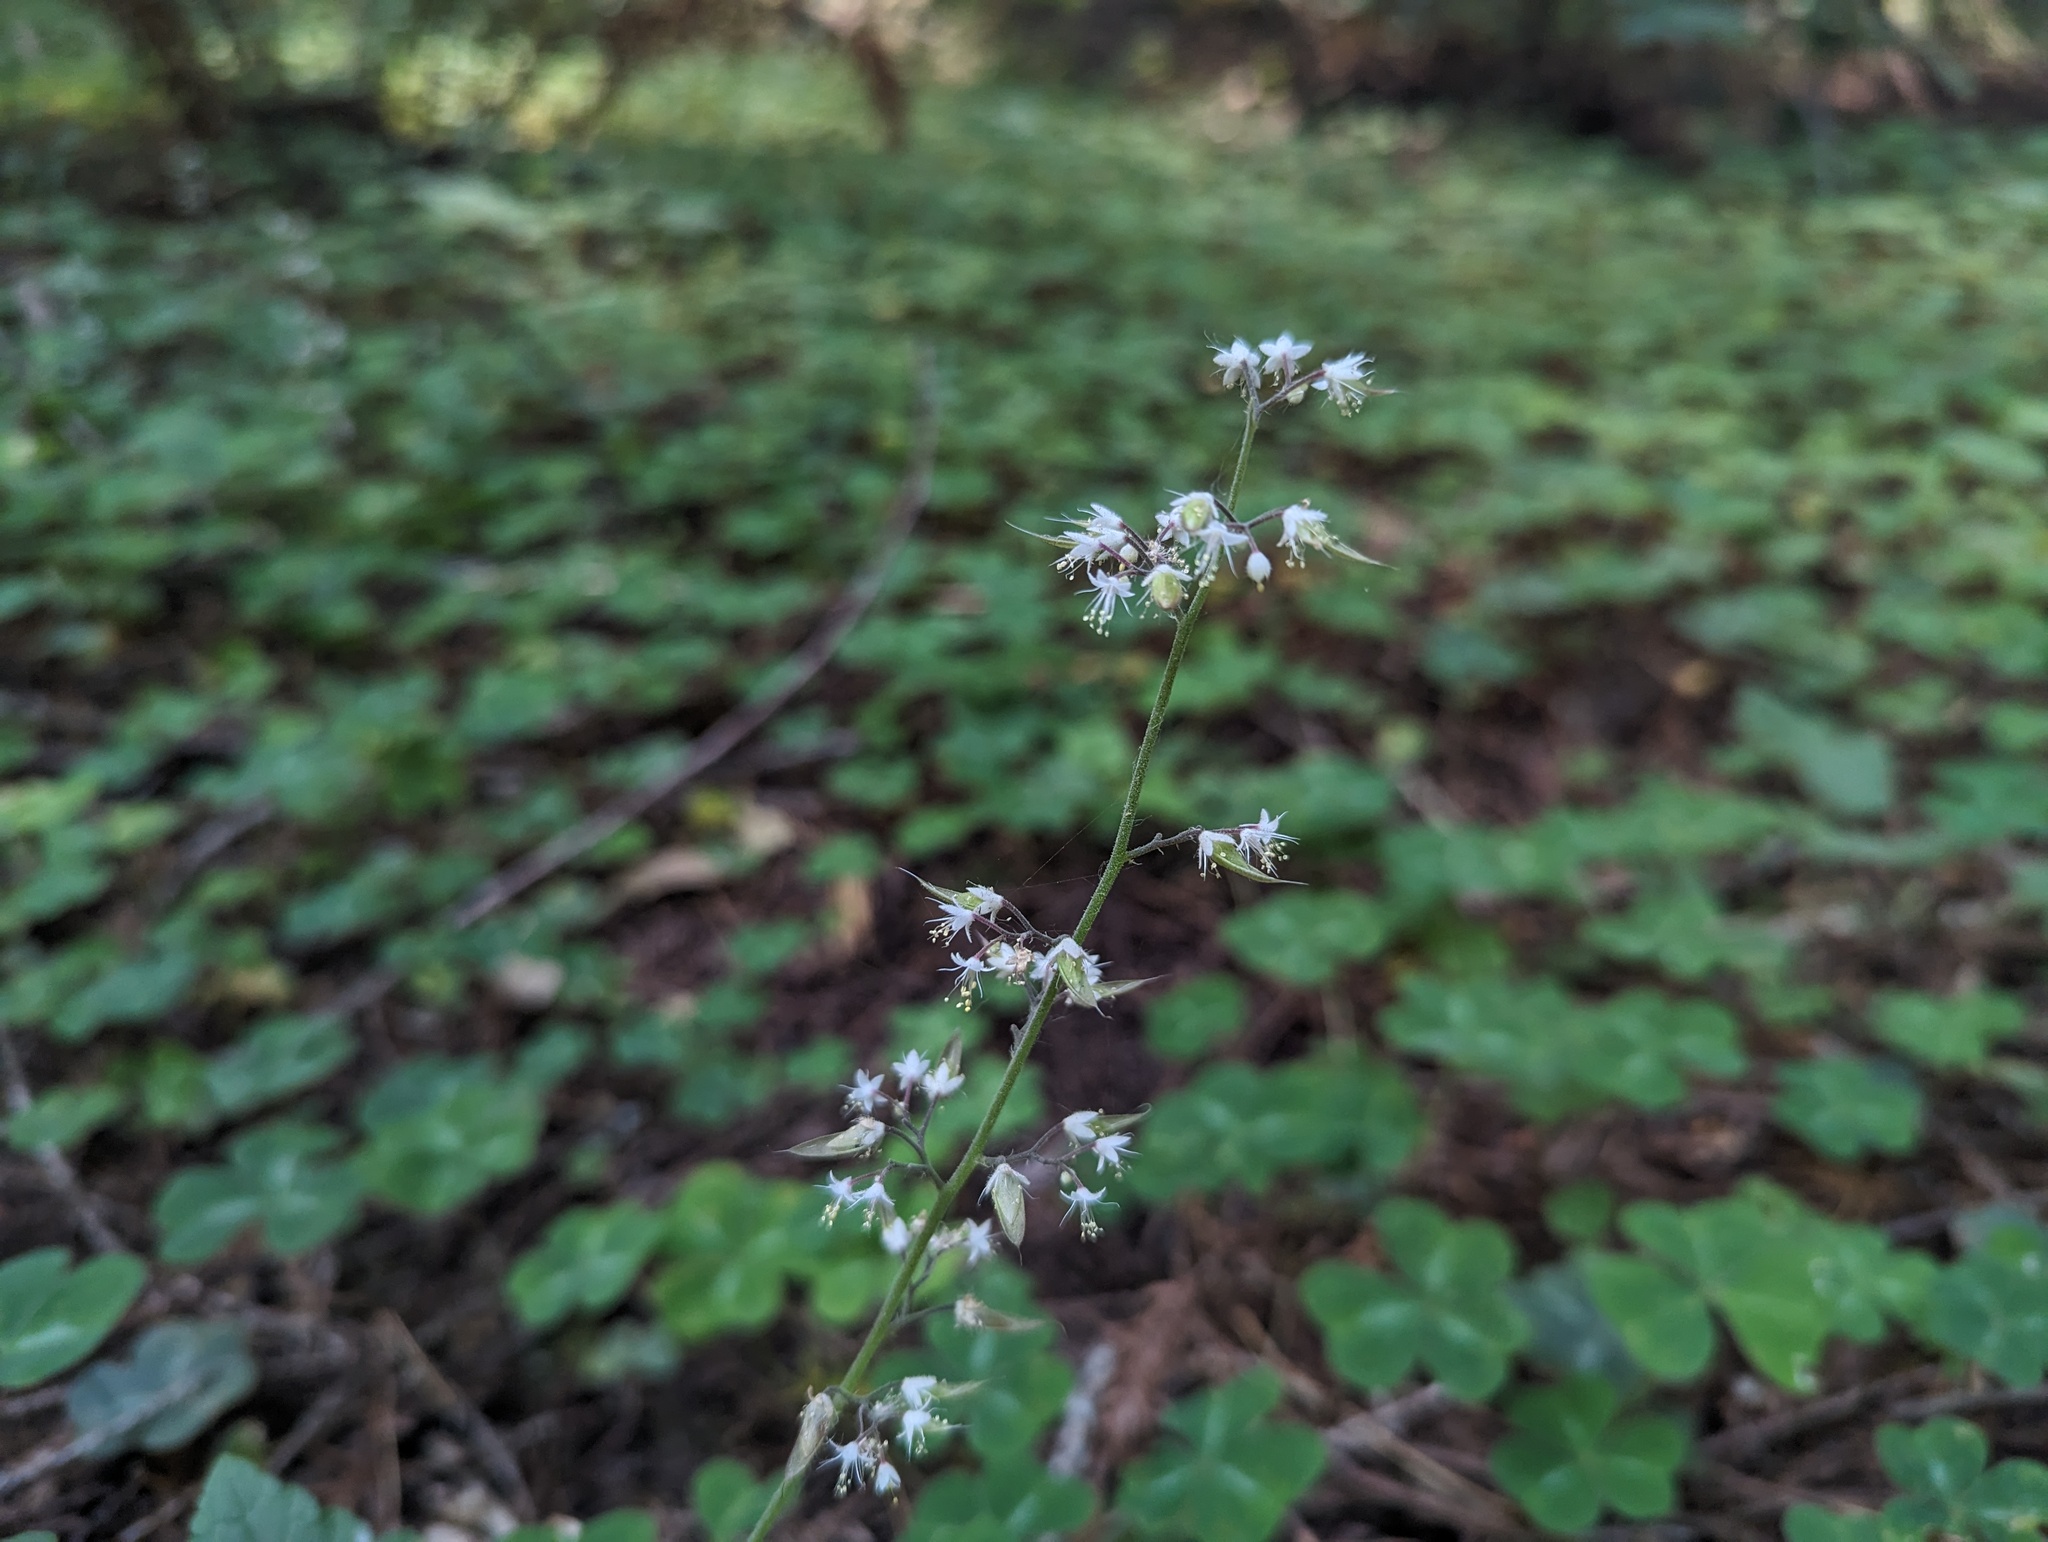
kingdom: Plantae
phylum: Tracheophyta
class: Magnoliopsida
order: Saxifragales
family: Saxifragaceae
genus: Tiarella
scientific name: Tiarella trifoliata
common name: Sugar-scoop
